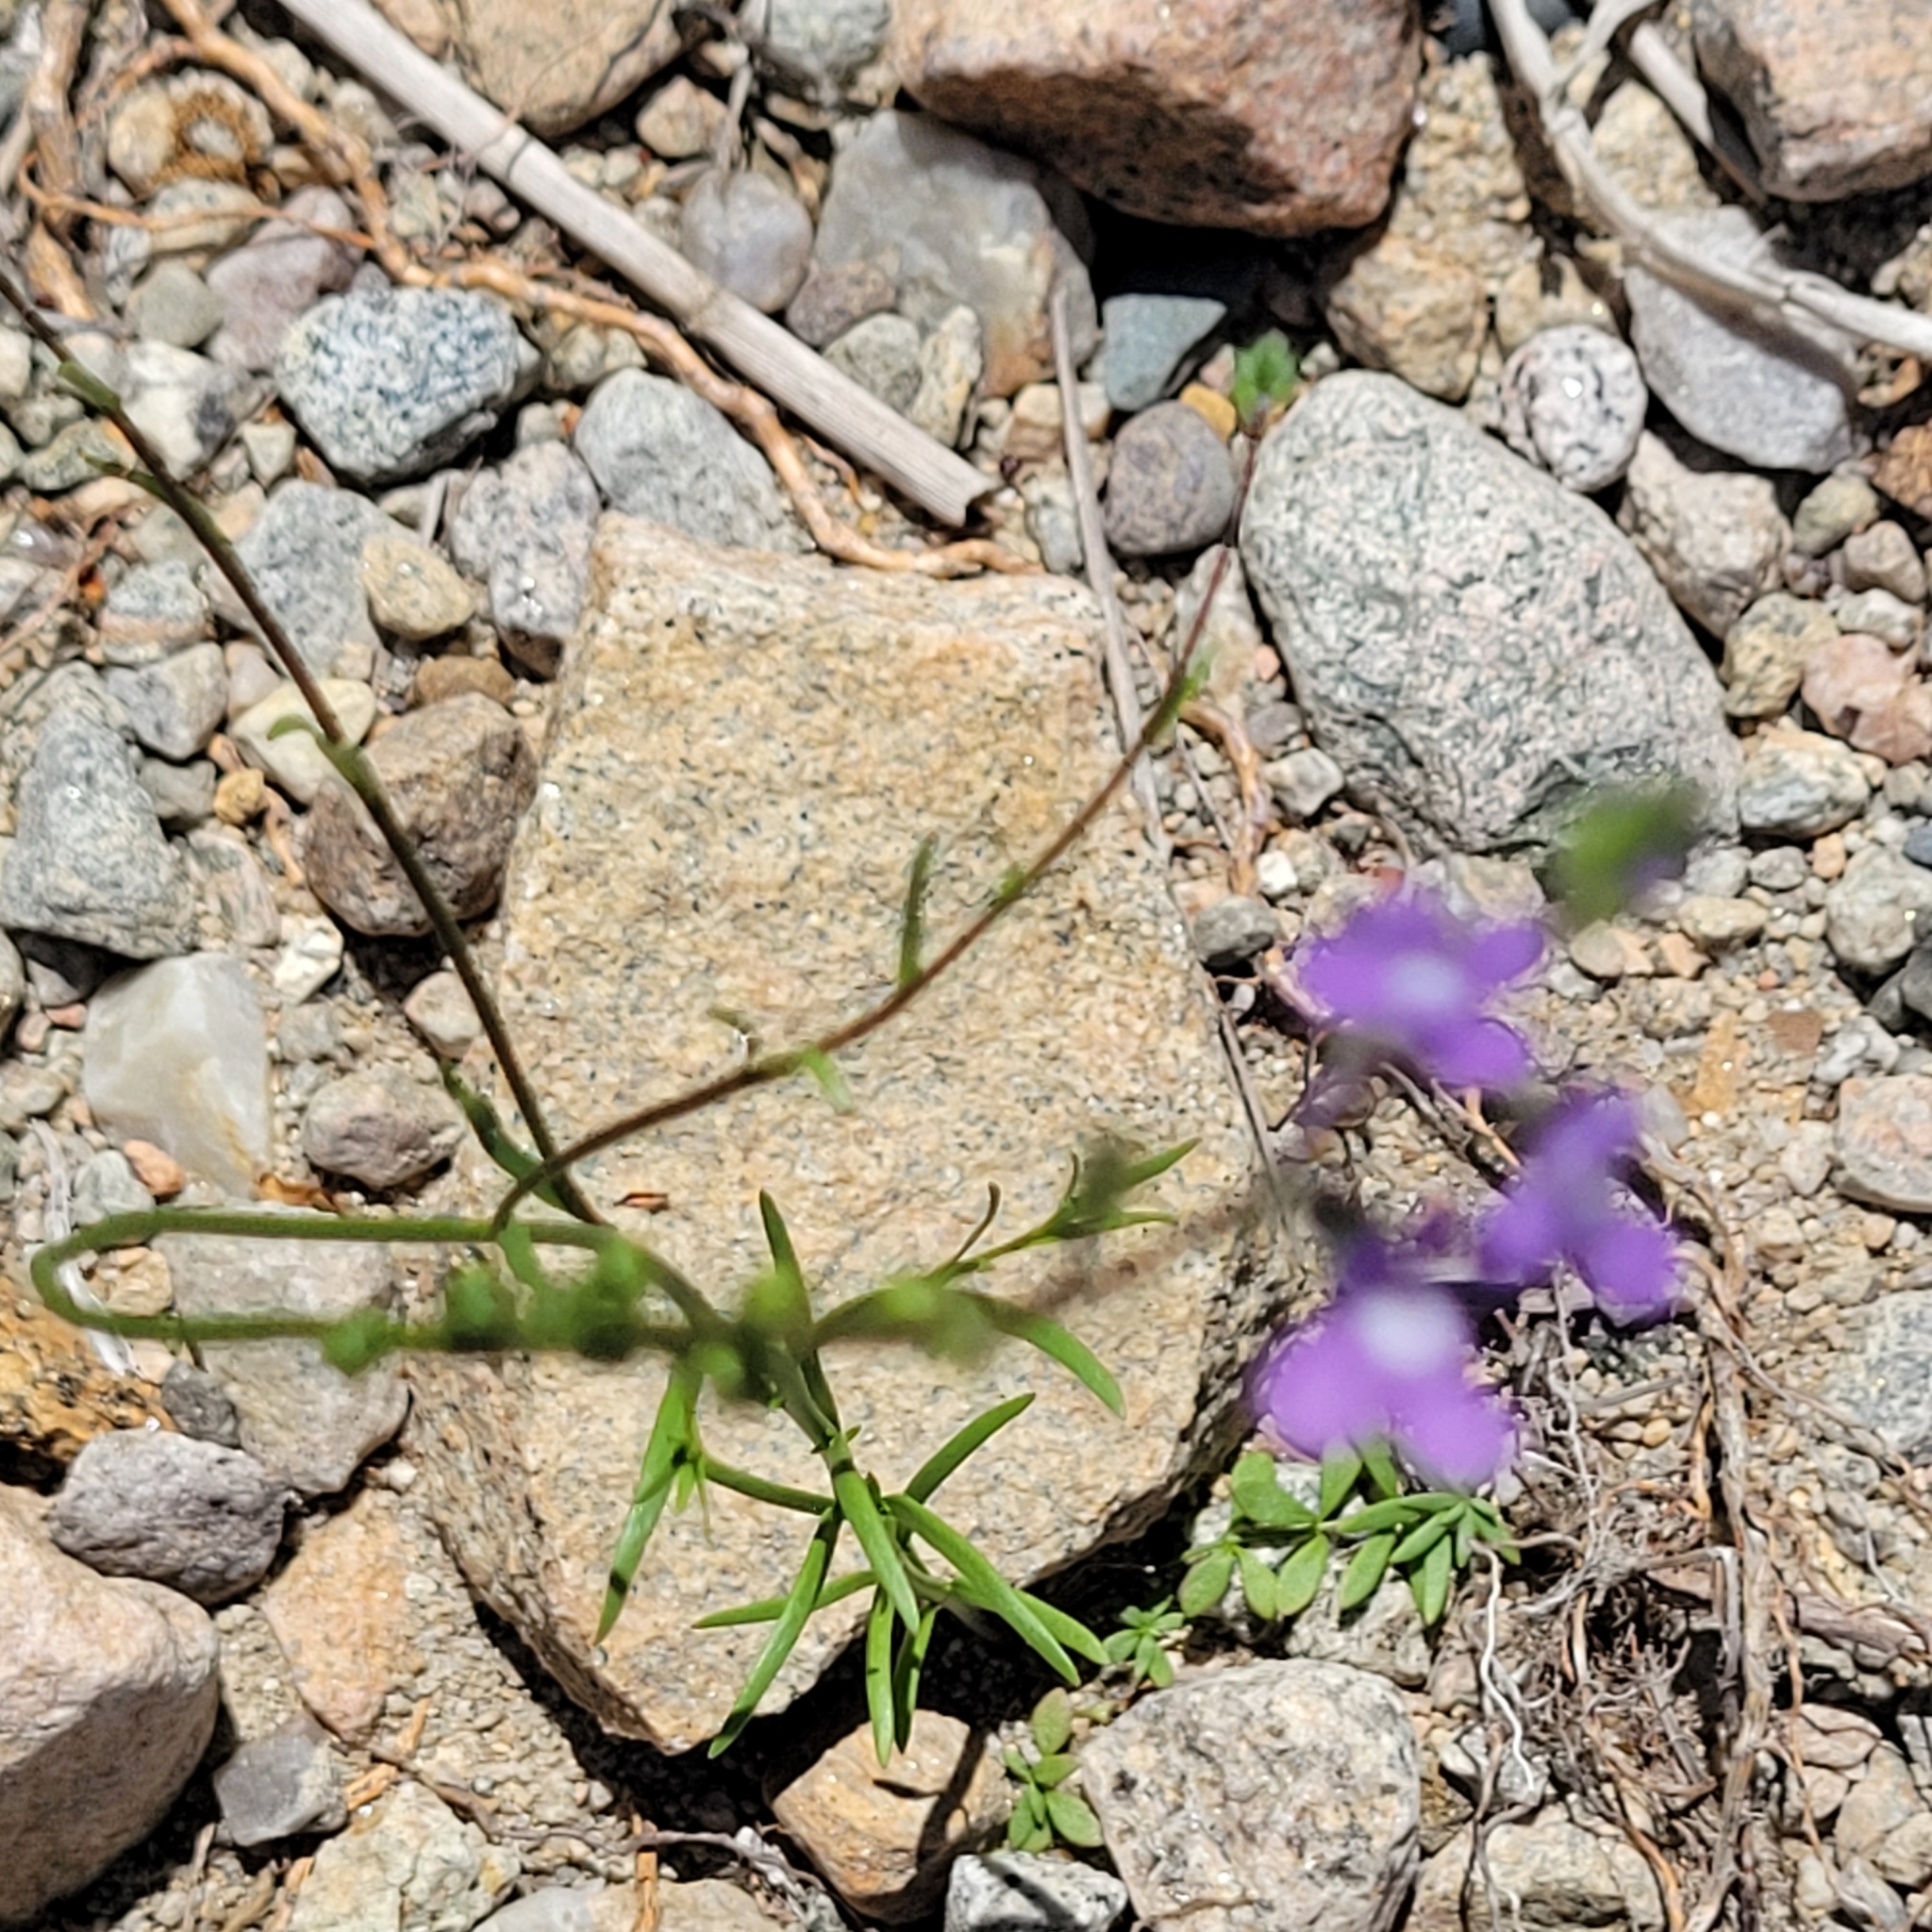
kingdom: Plantae
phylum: Tracheophyta
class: Magnoliopsida
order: Lamiales
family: Plantaginaceae
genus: Nuttallanthus
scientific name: Nuttallanthus canadensis
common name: Blue toadflax
